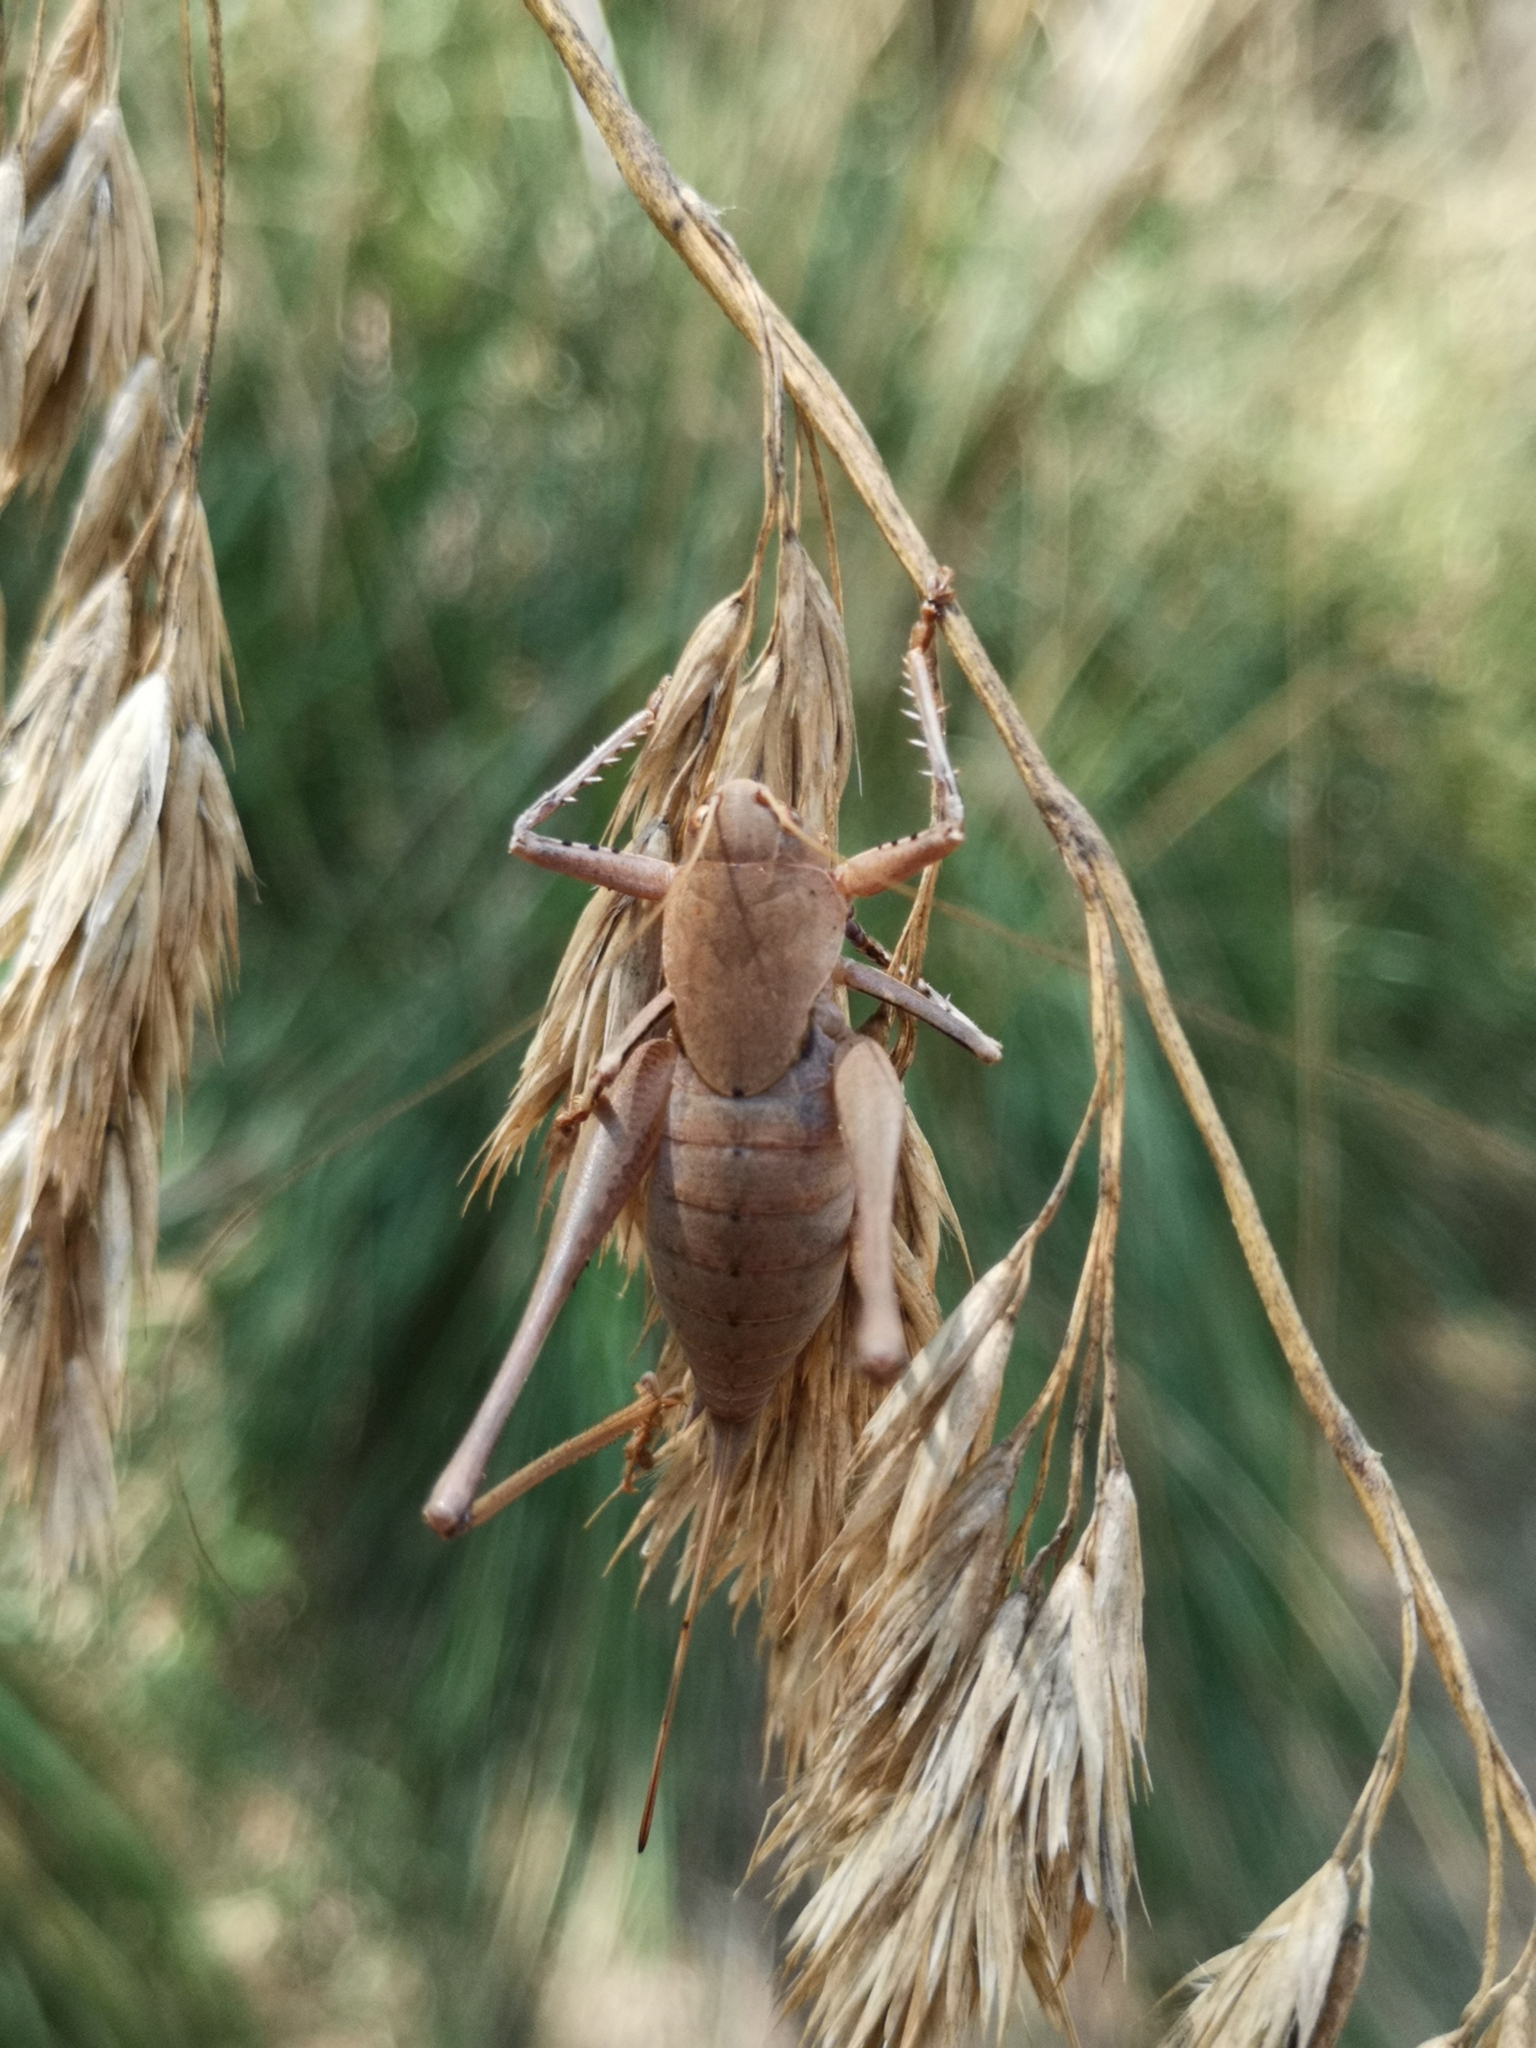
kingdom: Animalia
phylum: Arthropoda
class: Insecta
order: Orthoptera
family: Tettigoniidae
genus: Thyreonotus
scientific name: Thyreonotus corsicus
